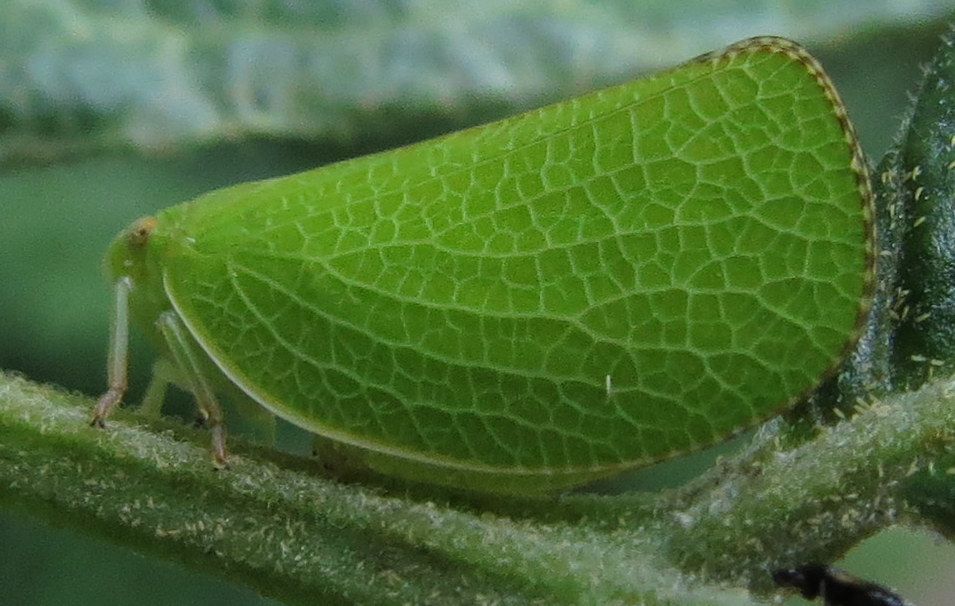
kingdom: Animalia
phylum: Arthropoda
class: Insecta
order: Hemiptera
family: Acanaloniidae
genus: Acanalonia
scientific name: Acanalonia conica
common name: Green cone-headed planthopper
